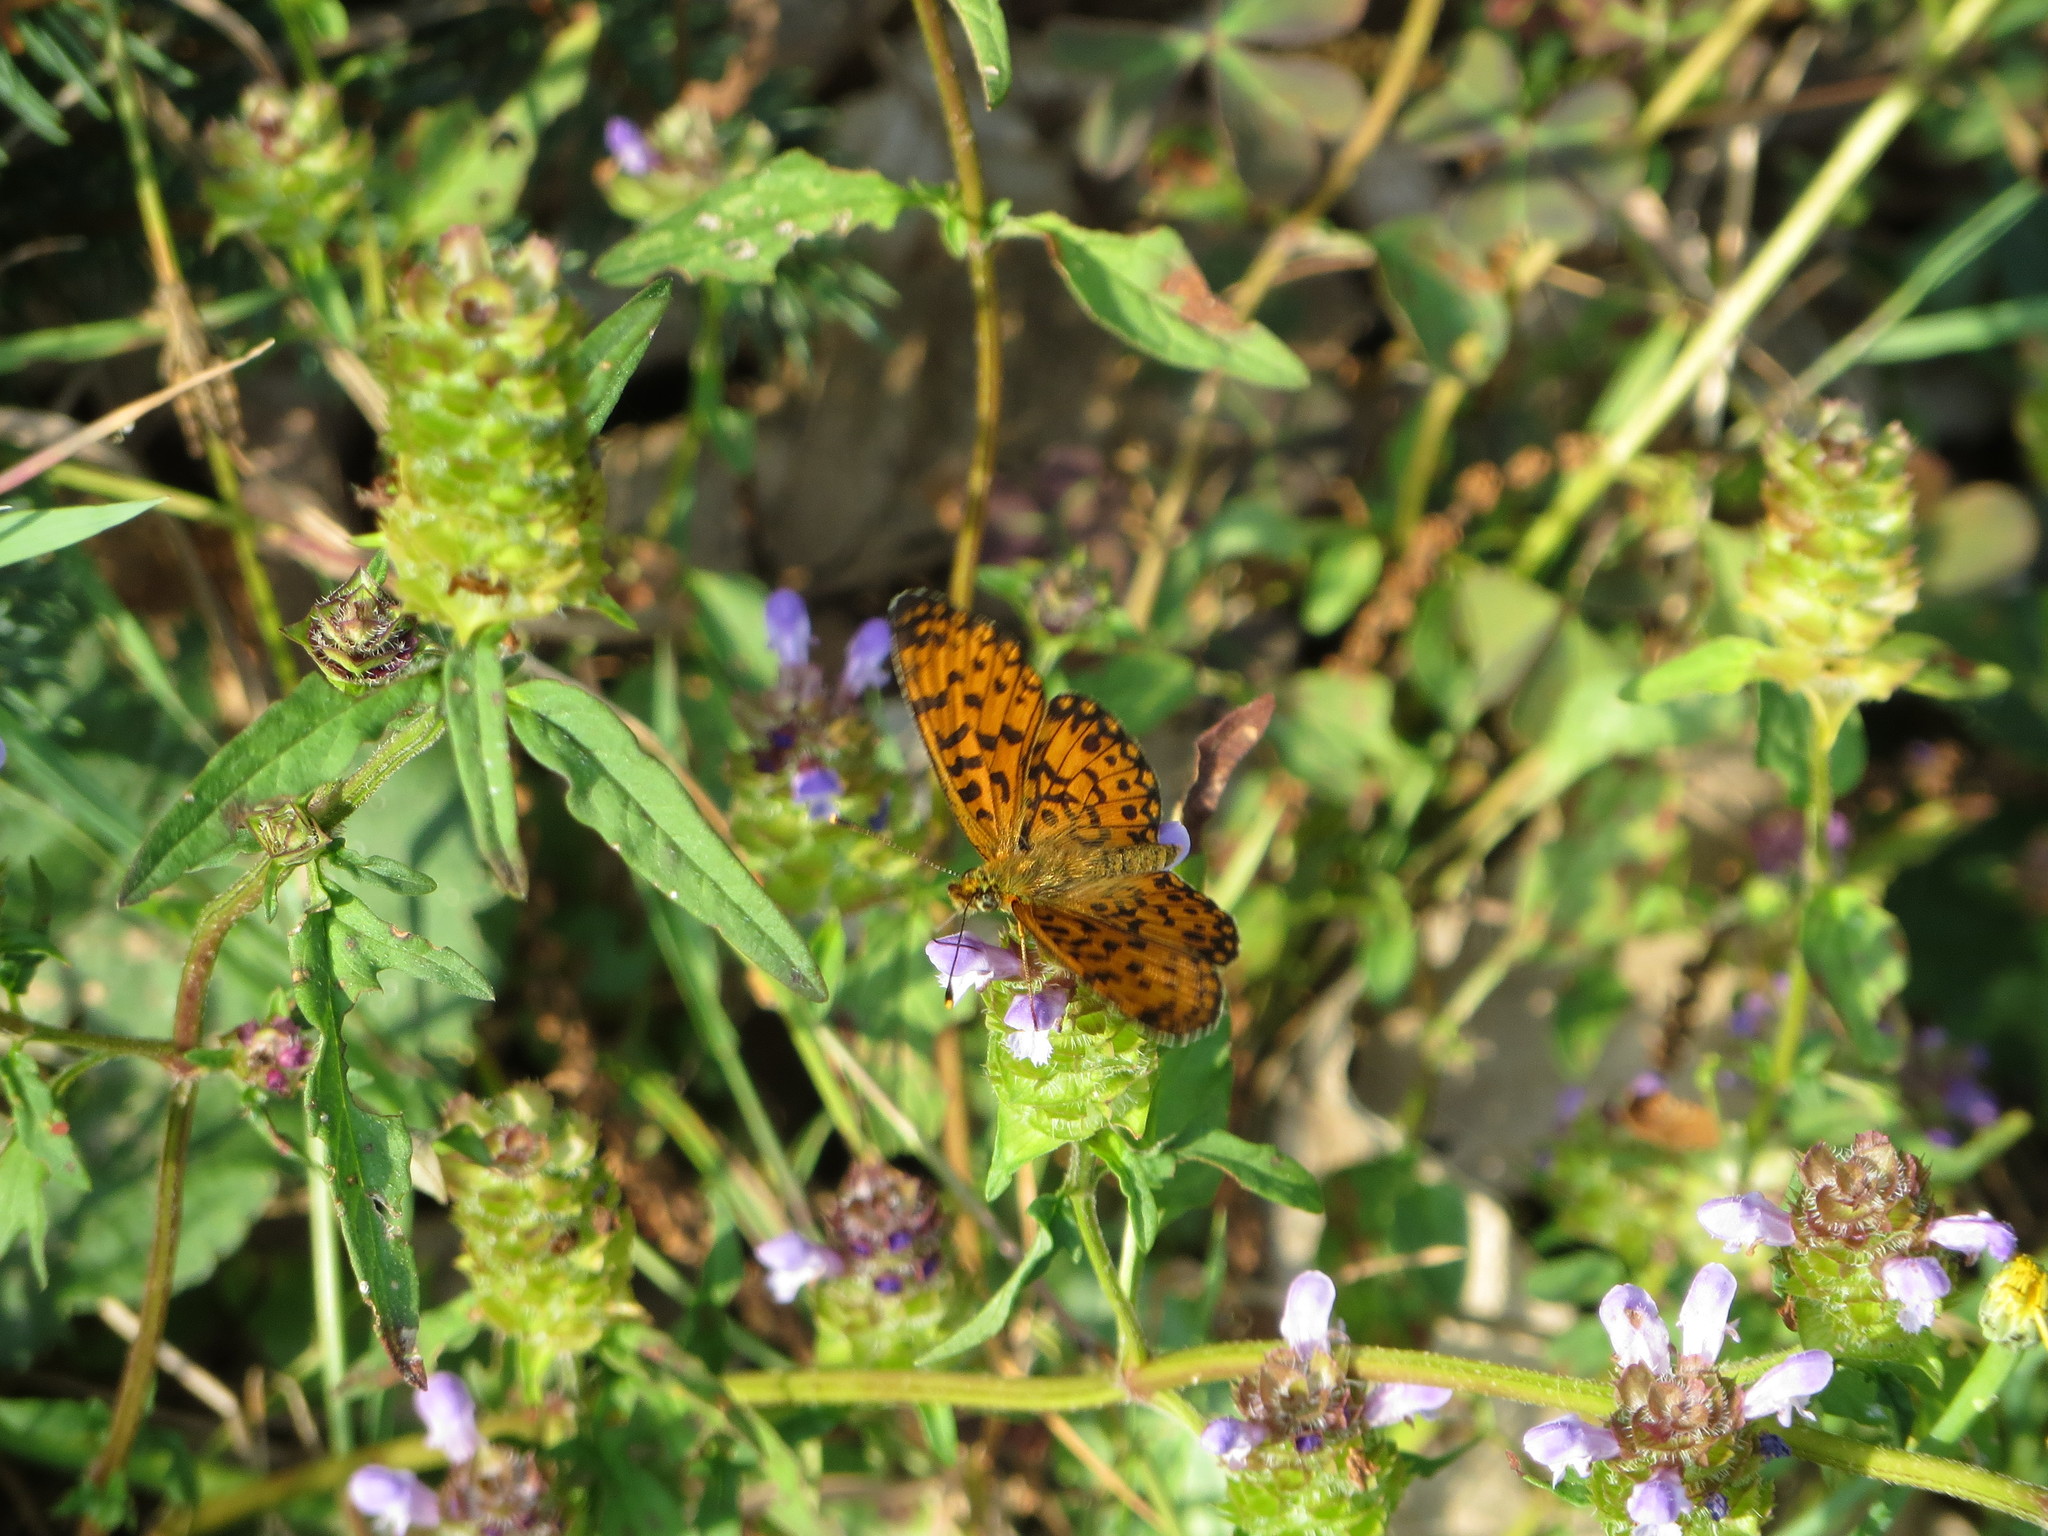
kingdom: Animalia
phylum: Arthropoda
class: Insecta
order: Lepidoptera
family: Nymphalidae
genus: Boloria
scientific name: Boloria selene
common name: Small pearl-bordered fritillary
